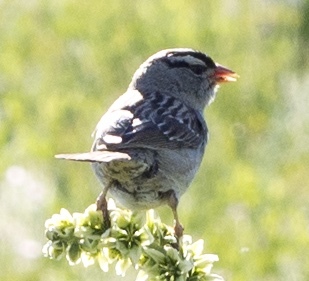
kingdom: Animalia
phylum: Chordata
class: Aves
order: Passeriformes
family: Passerellidae
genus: Zonotrichia
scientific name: Zonotrichia leucophrys
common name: White-crowned sparrow
